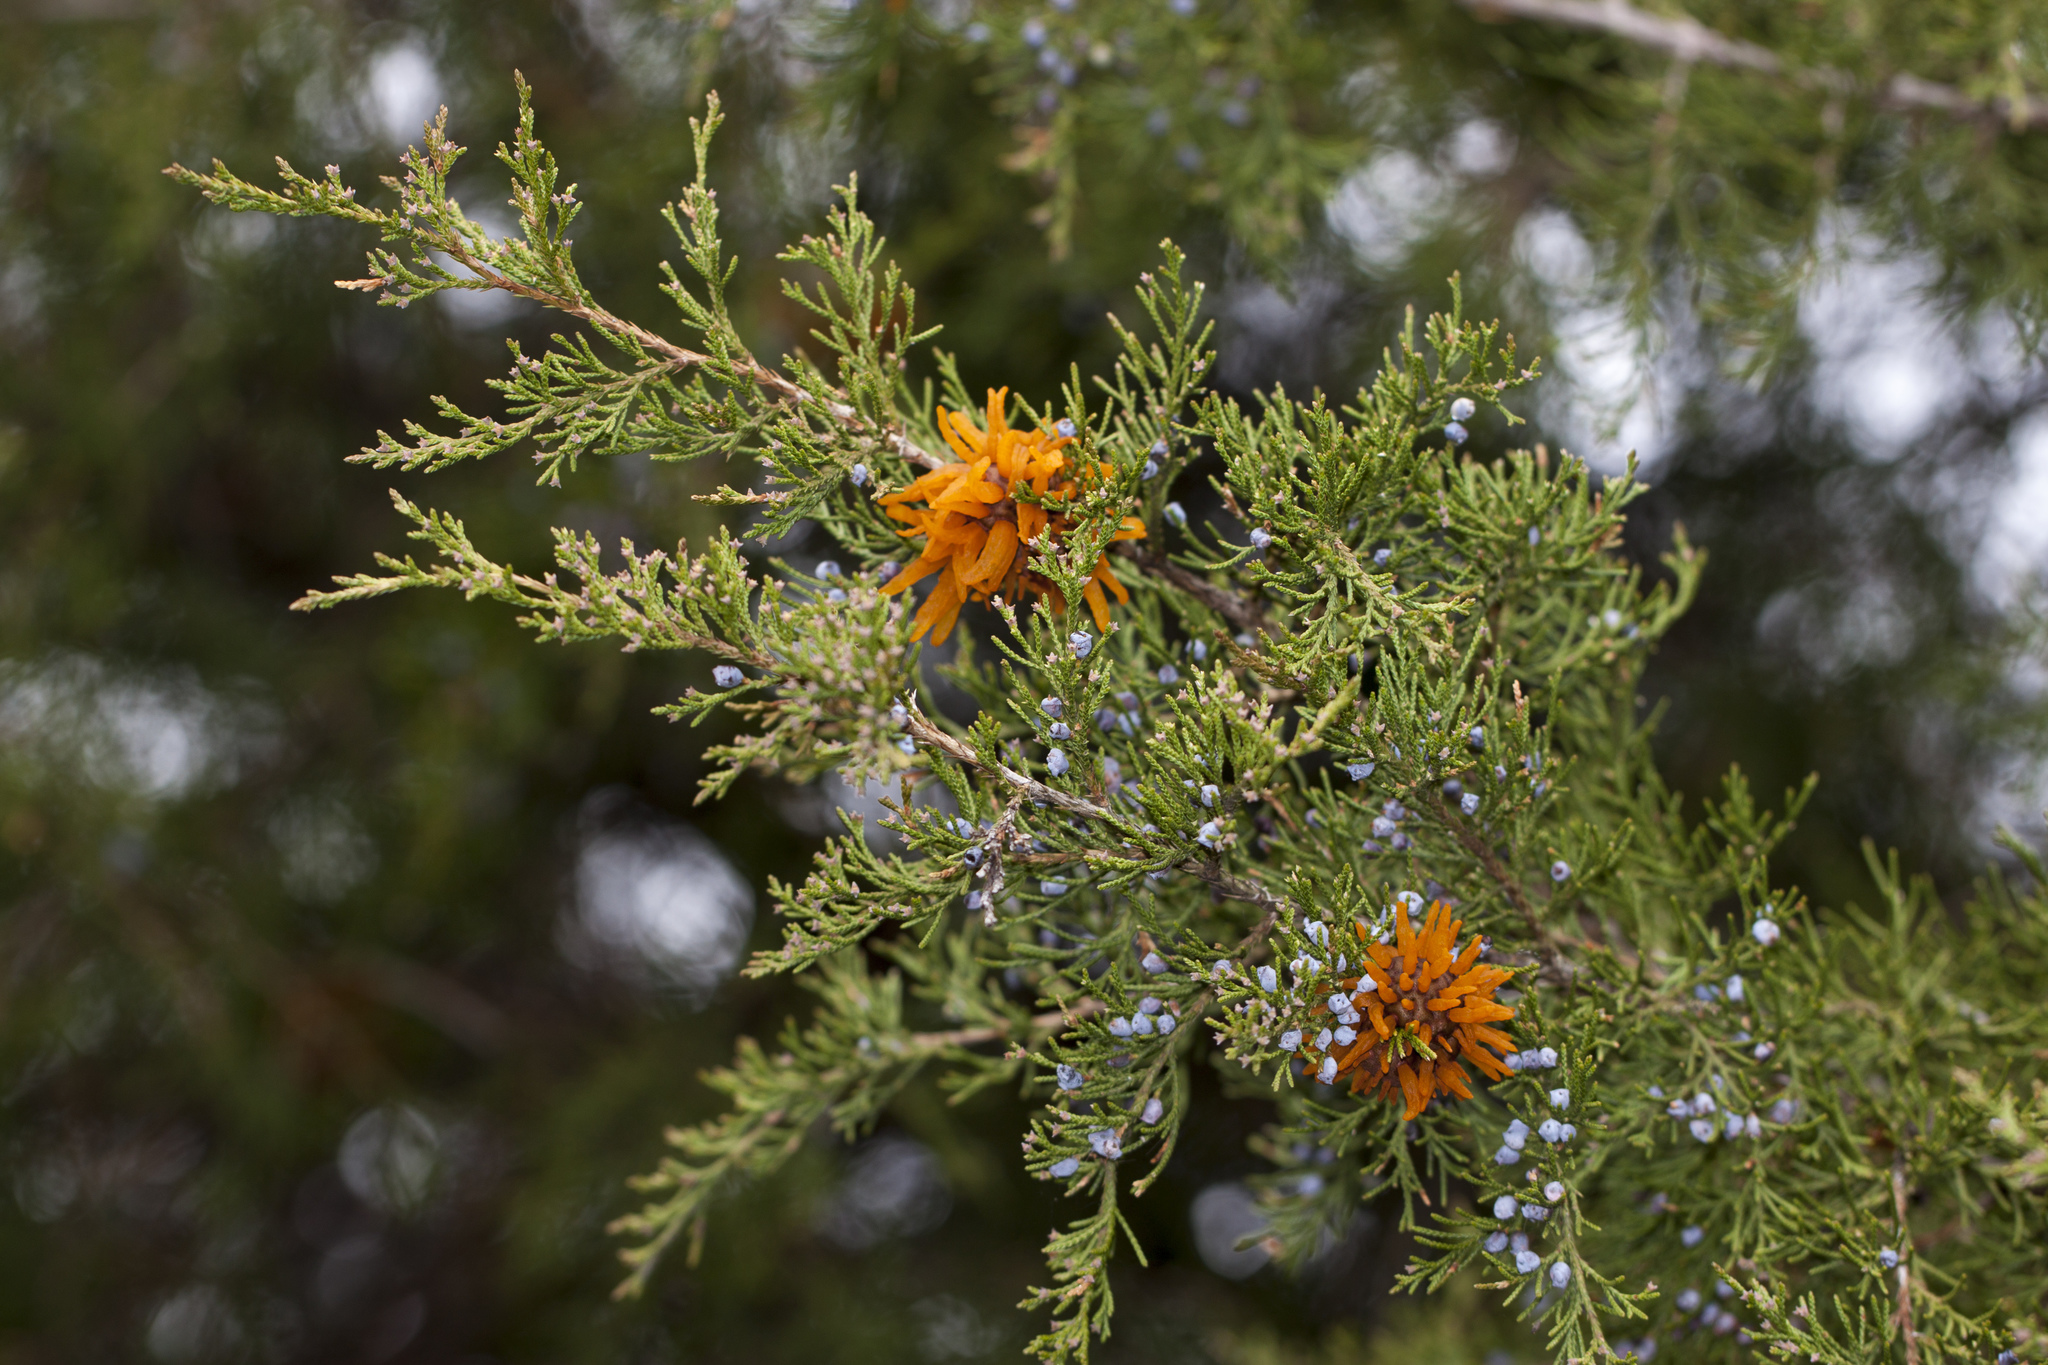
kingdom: Plantae
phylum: Tracheophyta
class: Pinopsida
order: Pinales
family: Cupressaceae
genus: Juniperus
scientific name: Juniperus virginiana
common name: Red juniper
